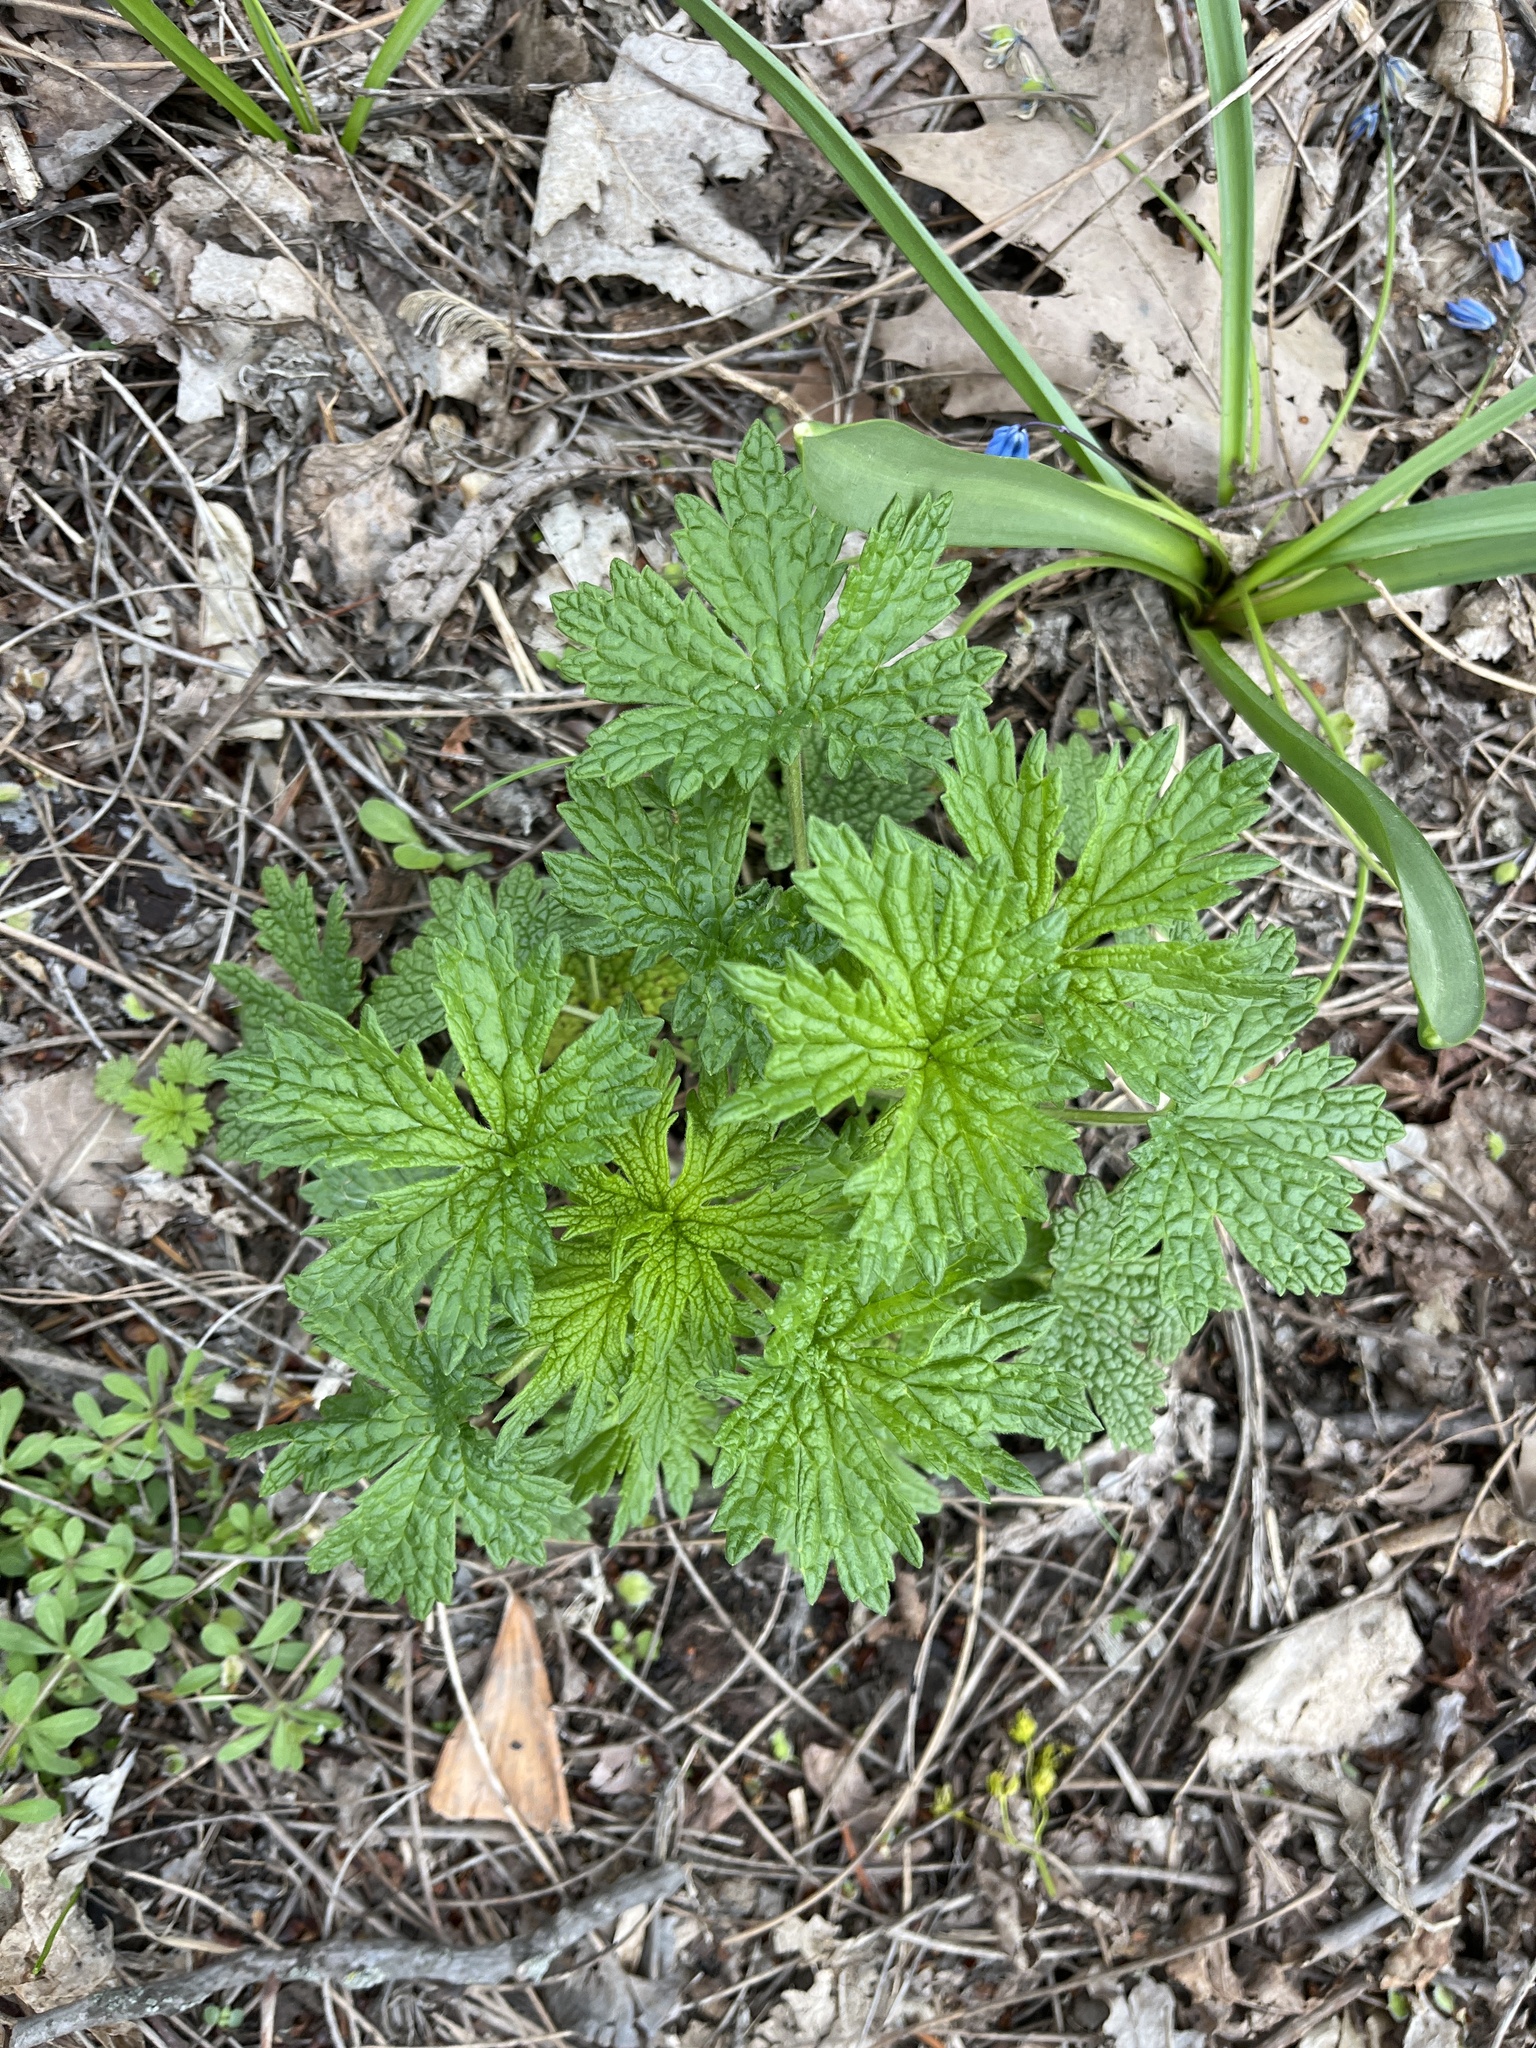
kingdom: Plantae
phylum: Tracheophyta
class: Magnoliopsida
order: Lamiales
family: Lamiaceae
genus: Leonurus
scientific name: Leonurus cardiaca
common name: Motherwort
